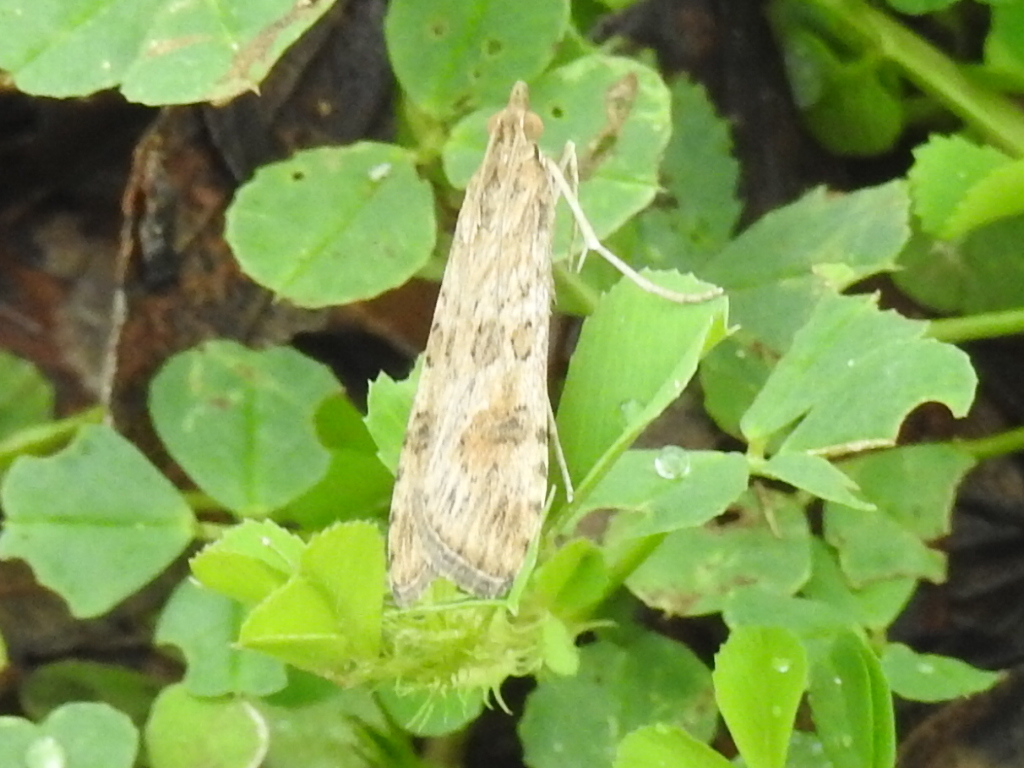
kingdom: Animalia
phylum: Arthropoda
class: Insecta
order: Lepidoptera
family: Crambidae
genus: Nomophila
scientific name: Nomophila nearctica
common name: American rush veneer
